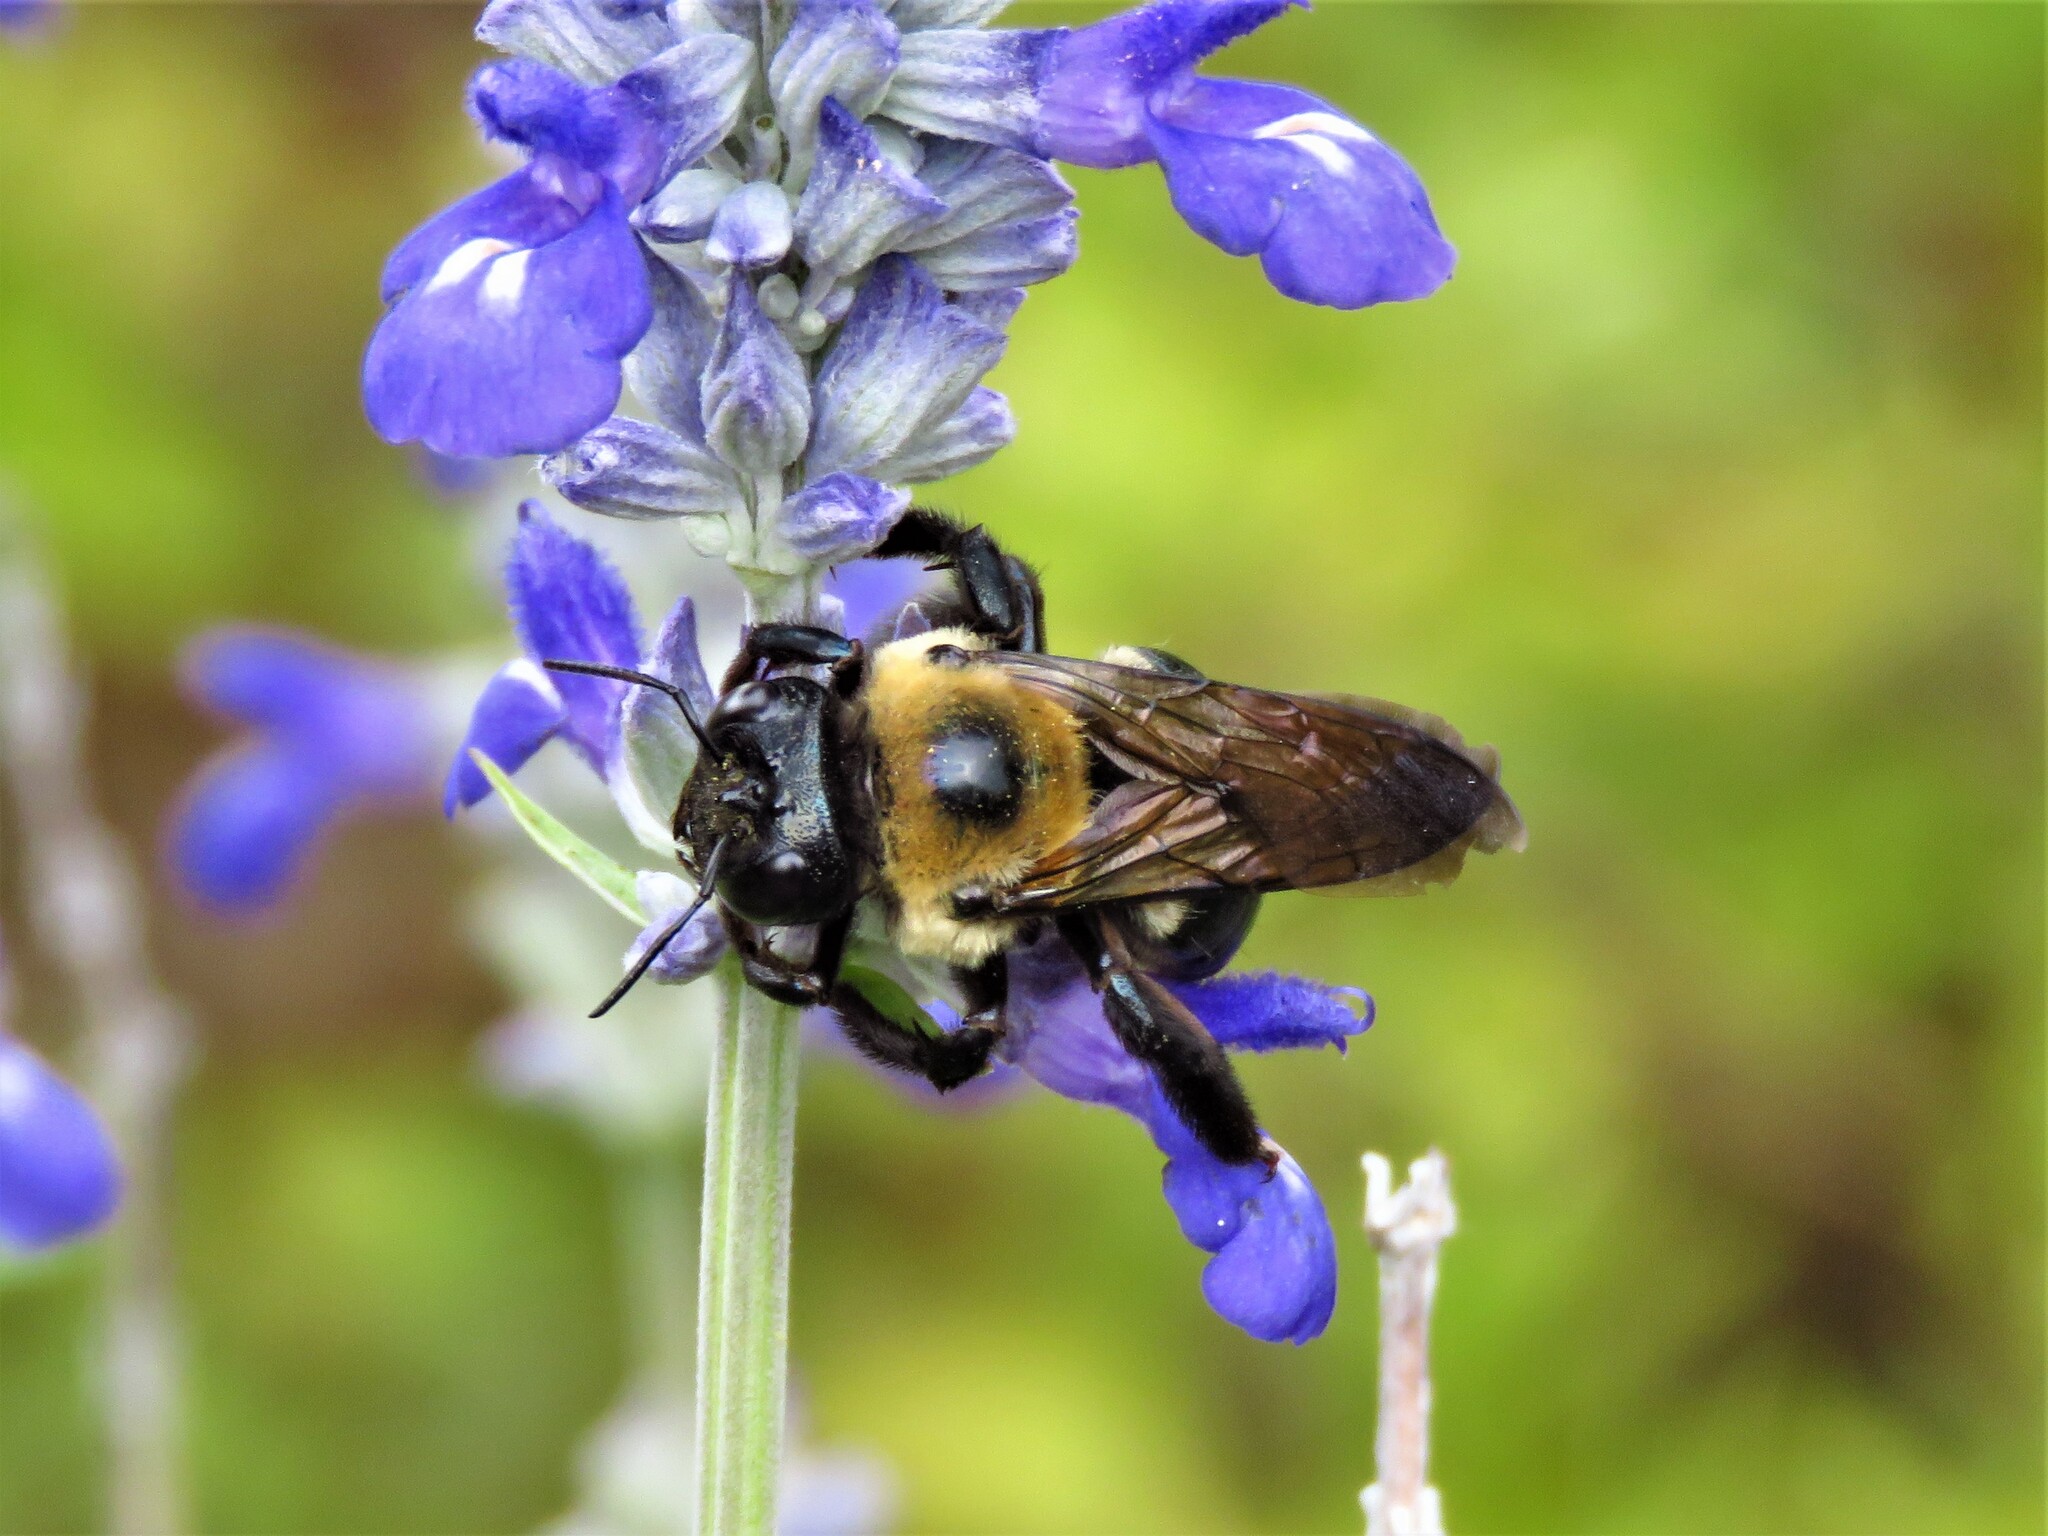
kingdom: Animalia
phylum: Arthropoda
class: Insecta
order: Hymenoptera
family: Apidae
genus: Xylocopa
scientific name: Xylocopa virginica
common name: Carpenter bee
